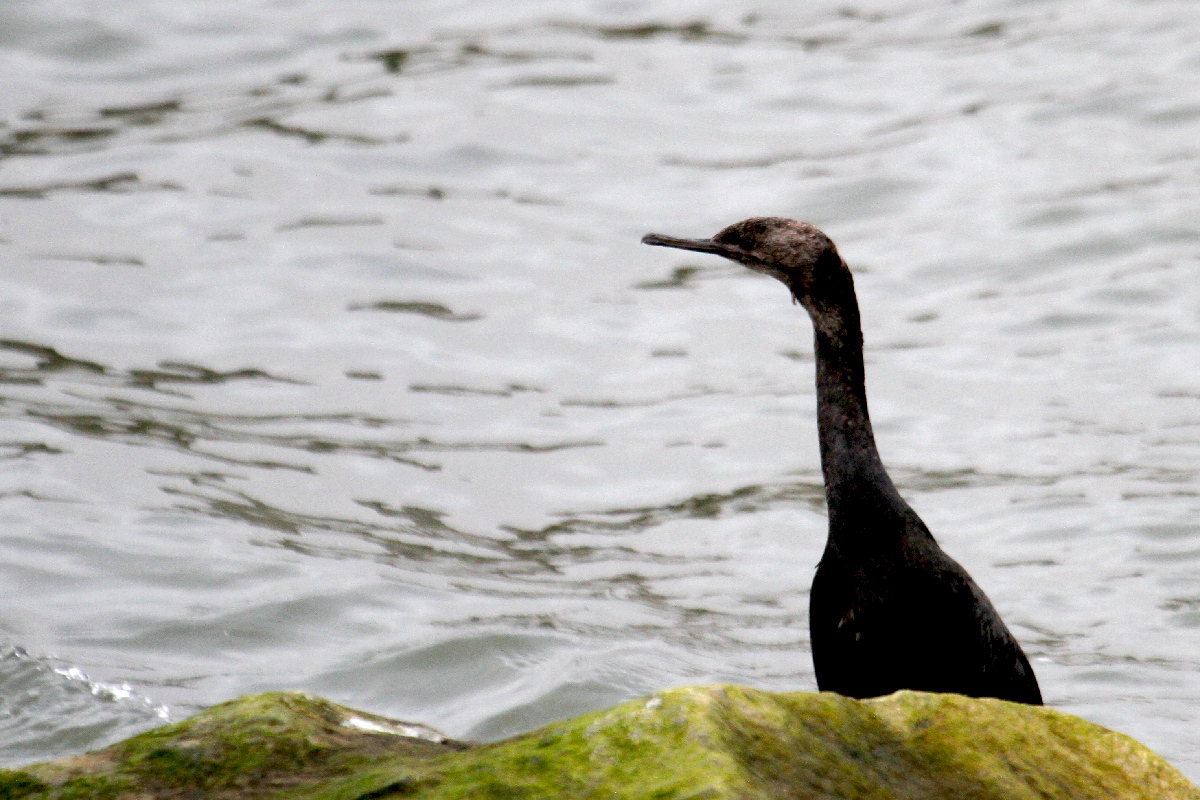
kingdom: Animalia
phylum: Chordata
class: Aves
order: Suliformes
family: Phalacrocoracidae
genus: Phalacrocorax
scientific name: Phalacrocorax pelagicus
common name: Pelagic cormorant
